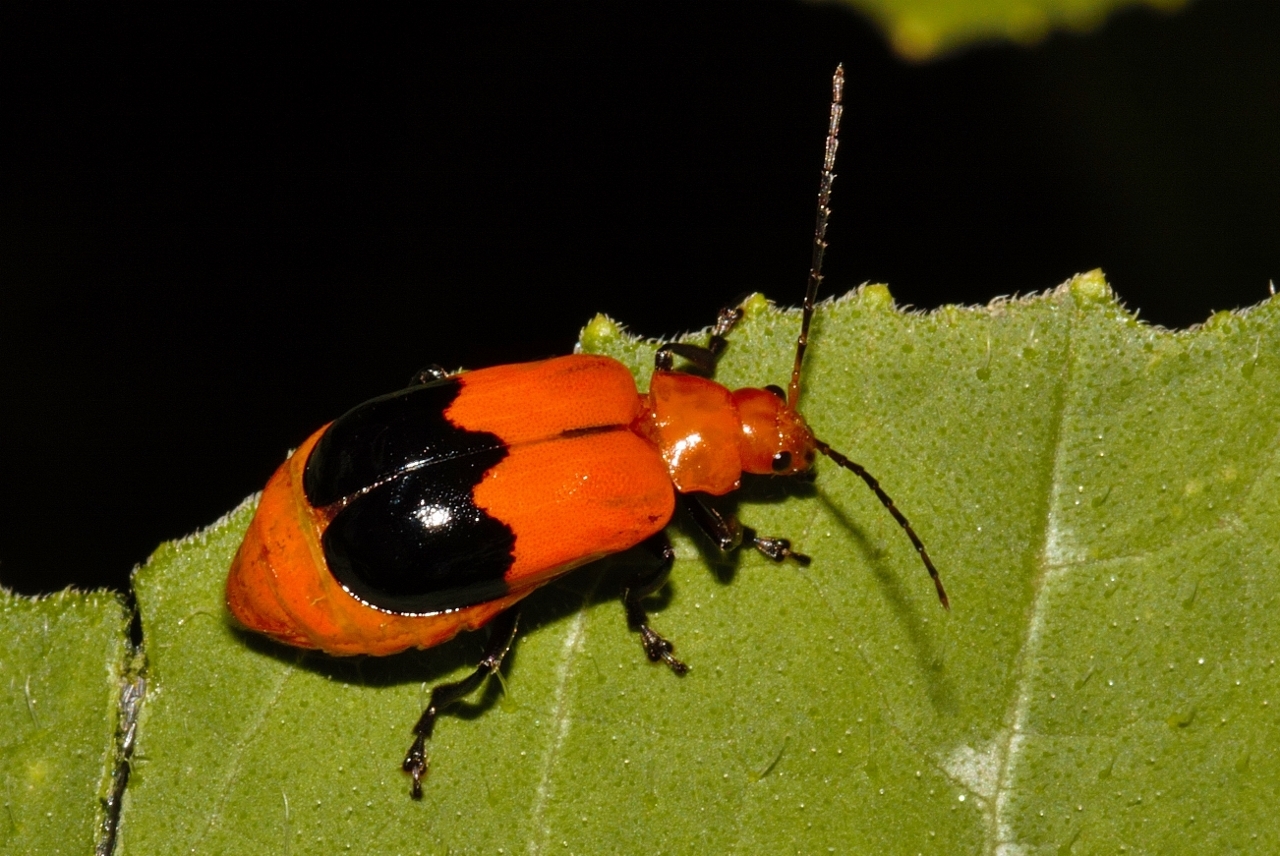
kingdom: Animalia
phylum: Arthropoda
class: Insecta
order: Coleoptera
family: Chrysomelidae
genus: Prosmidia
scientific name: Prosmidia
